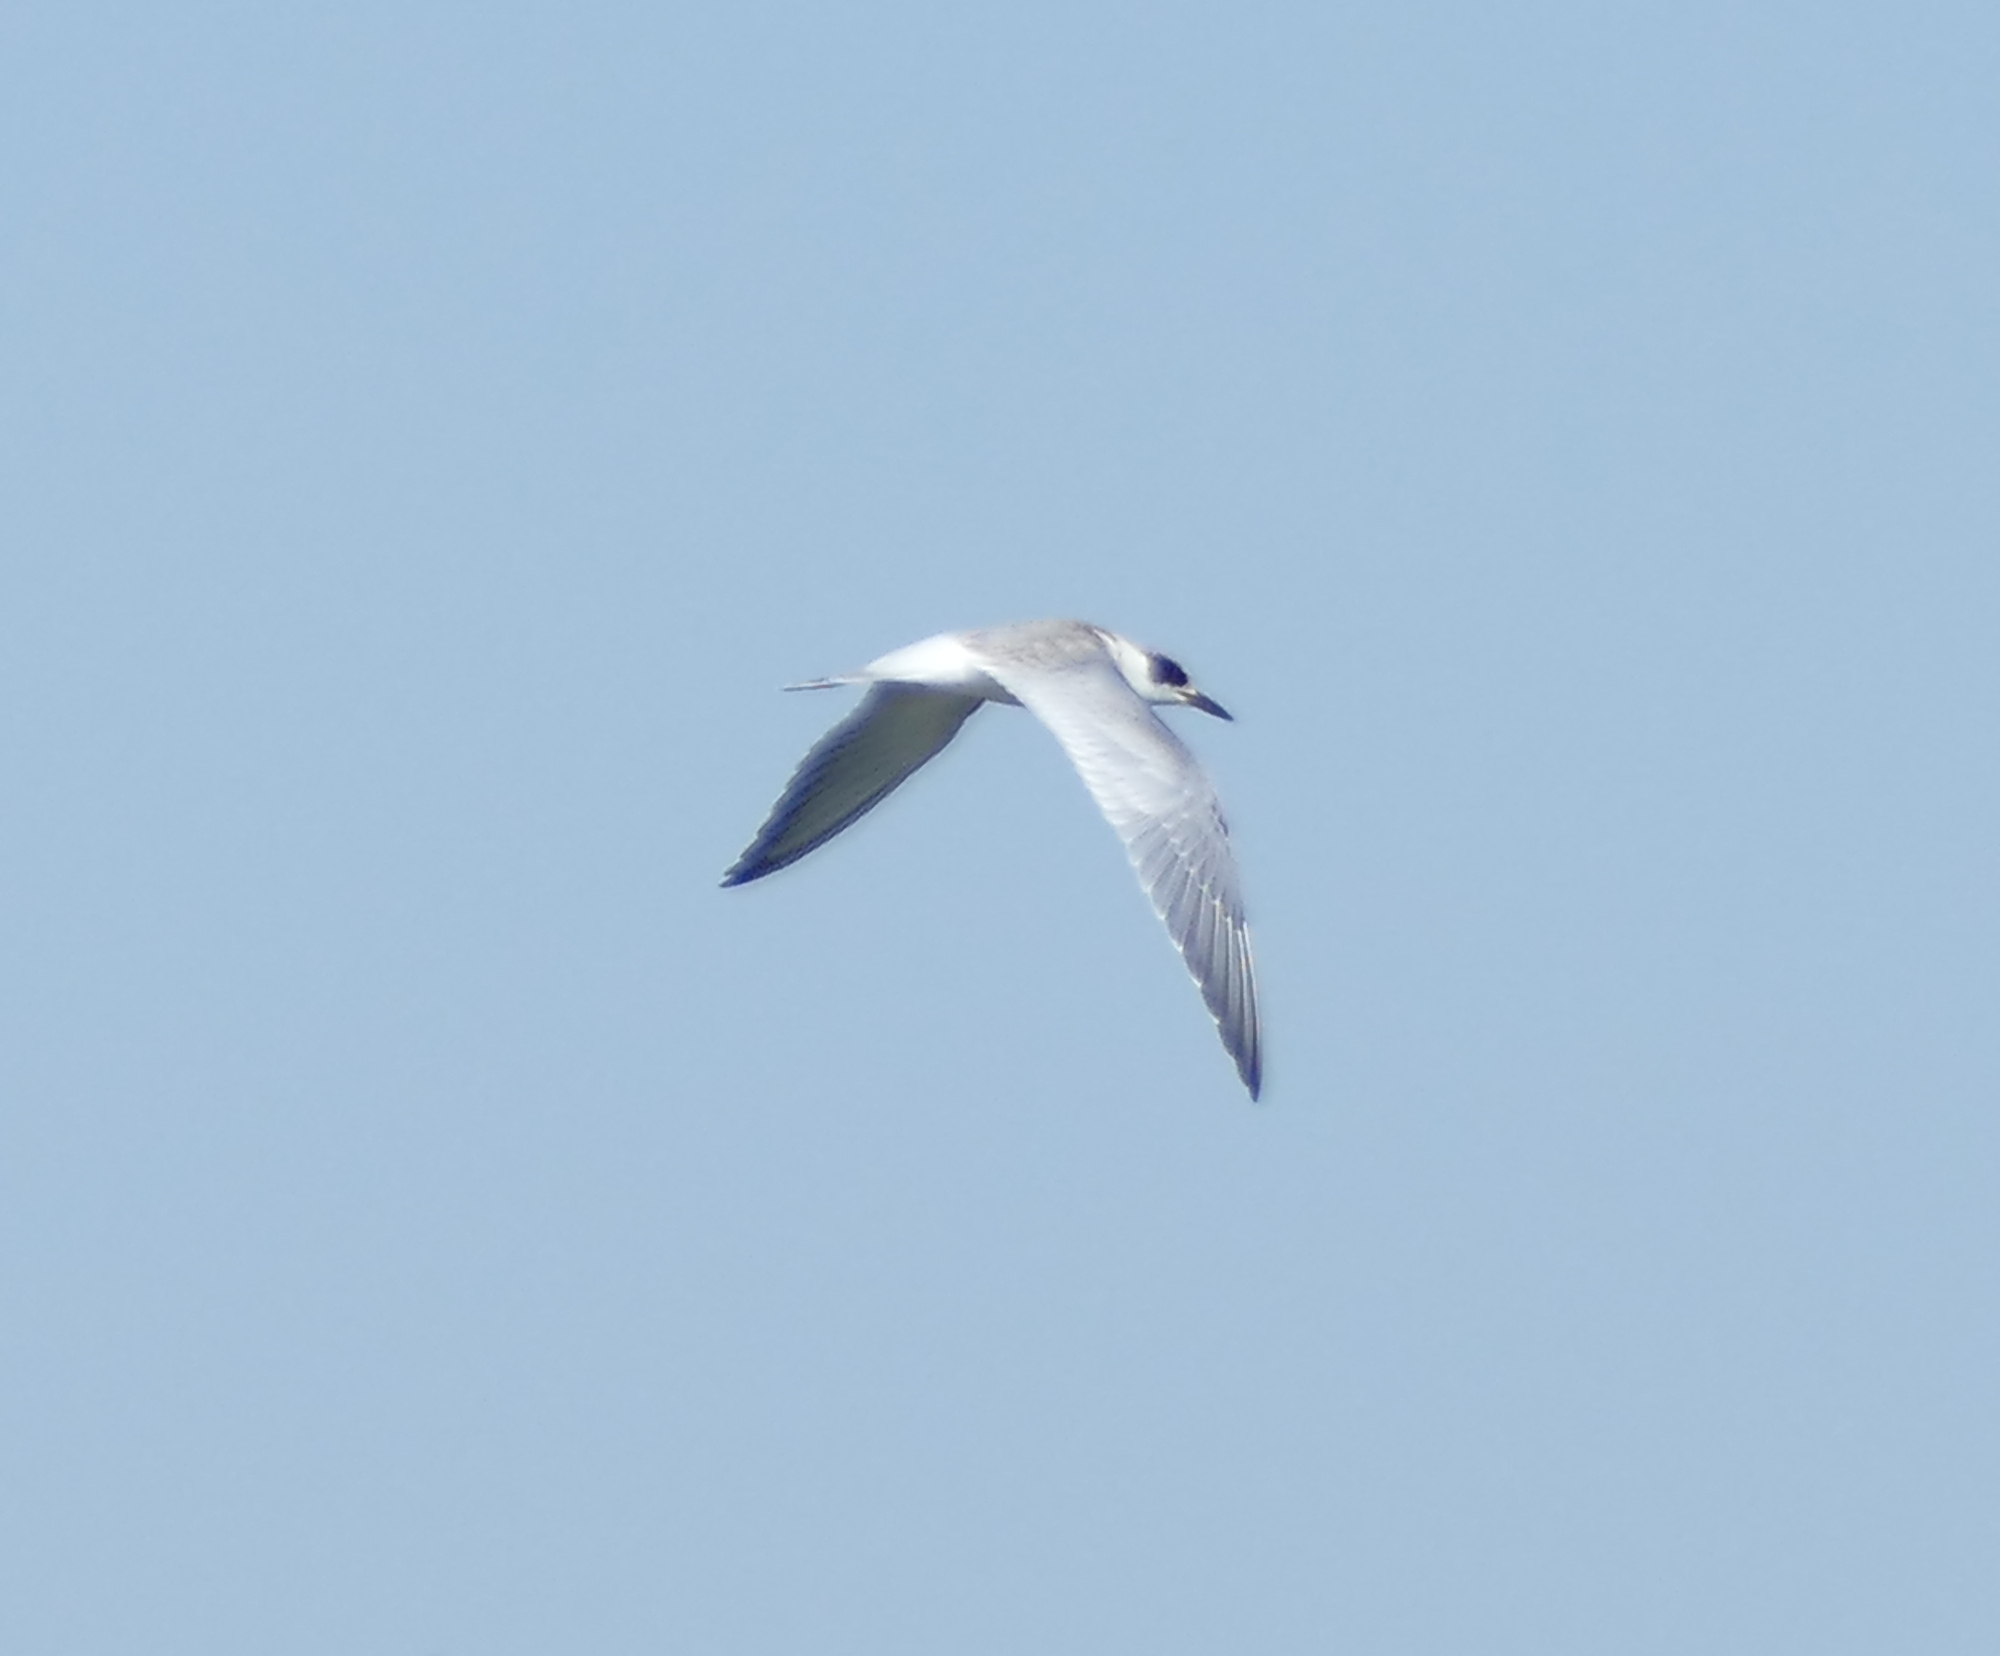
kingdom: Animalia
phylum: Chordata
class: Aves
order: Charadriiformes
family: Laridae
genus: Sterna
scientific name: Sterna forsteri
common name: Forster's tern
